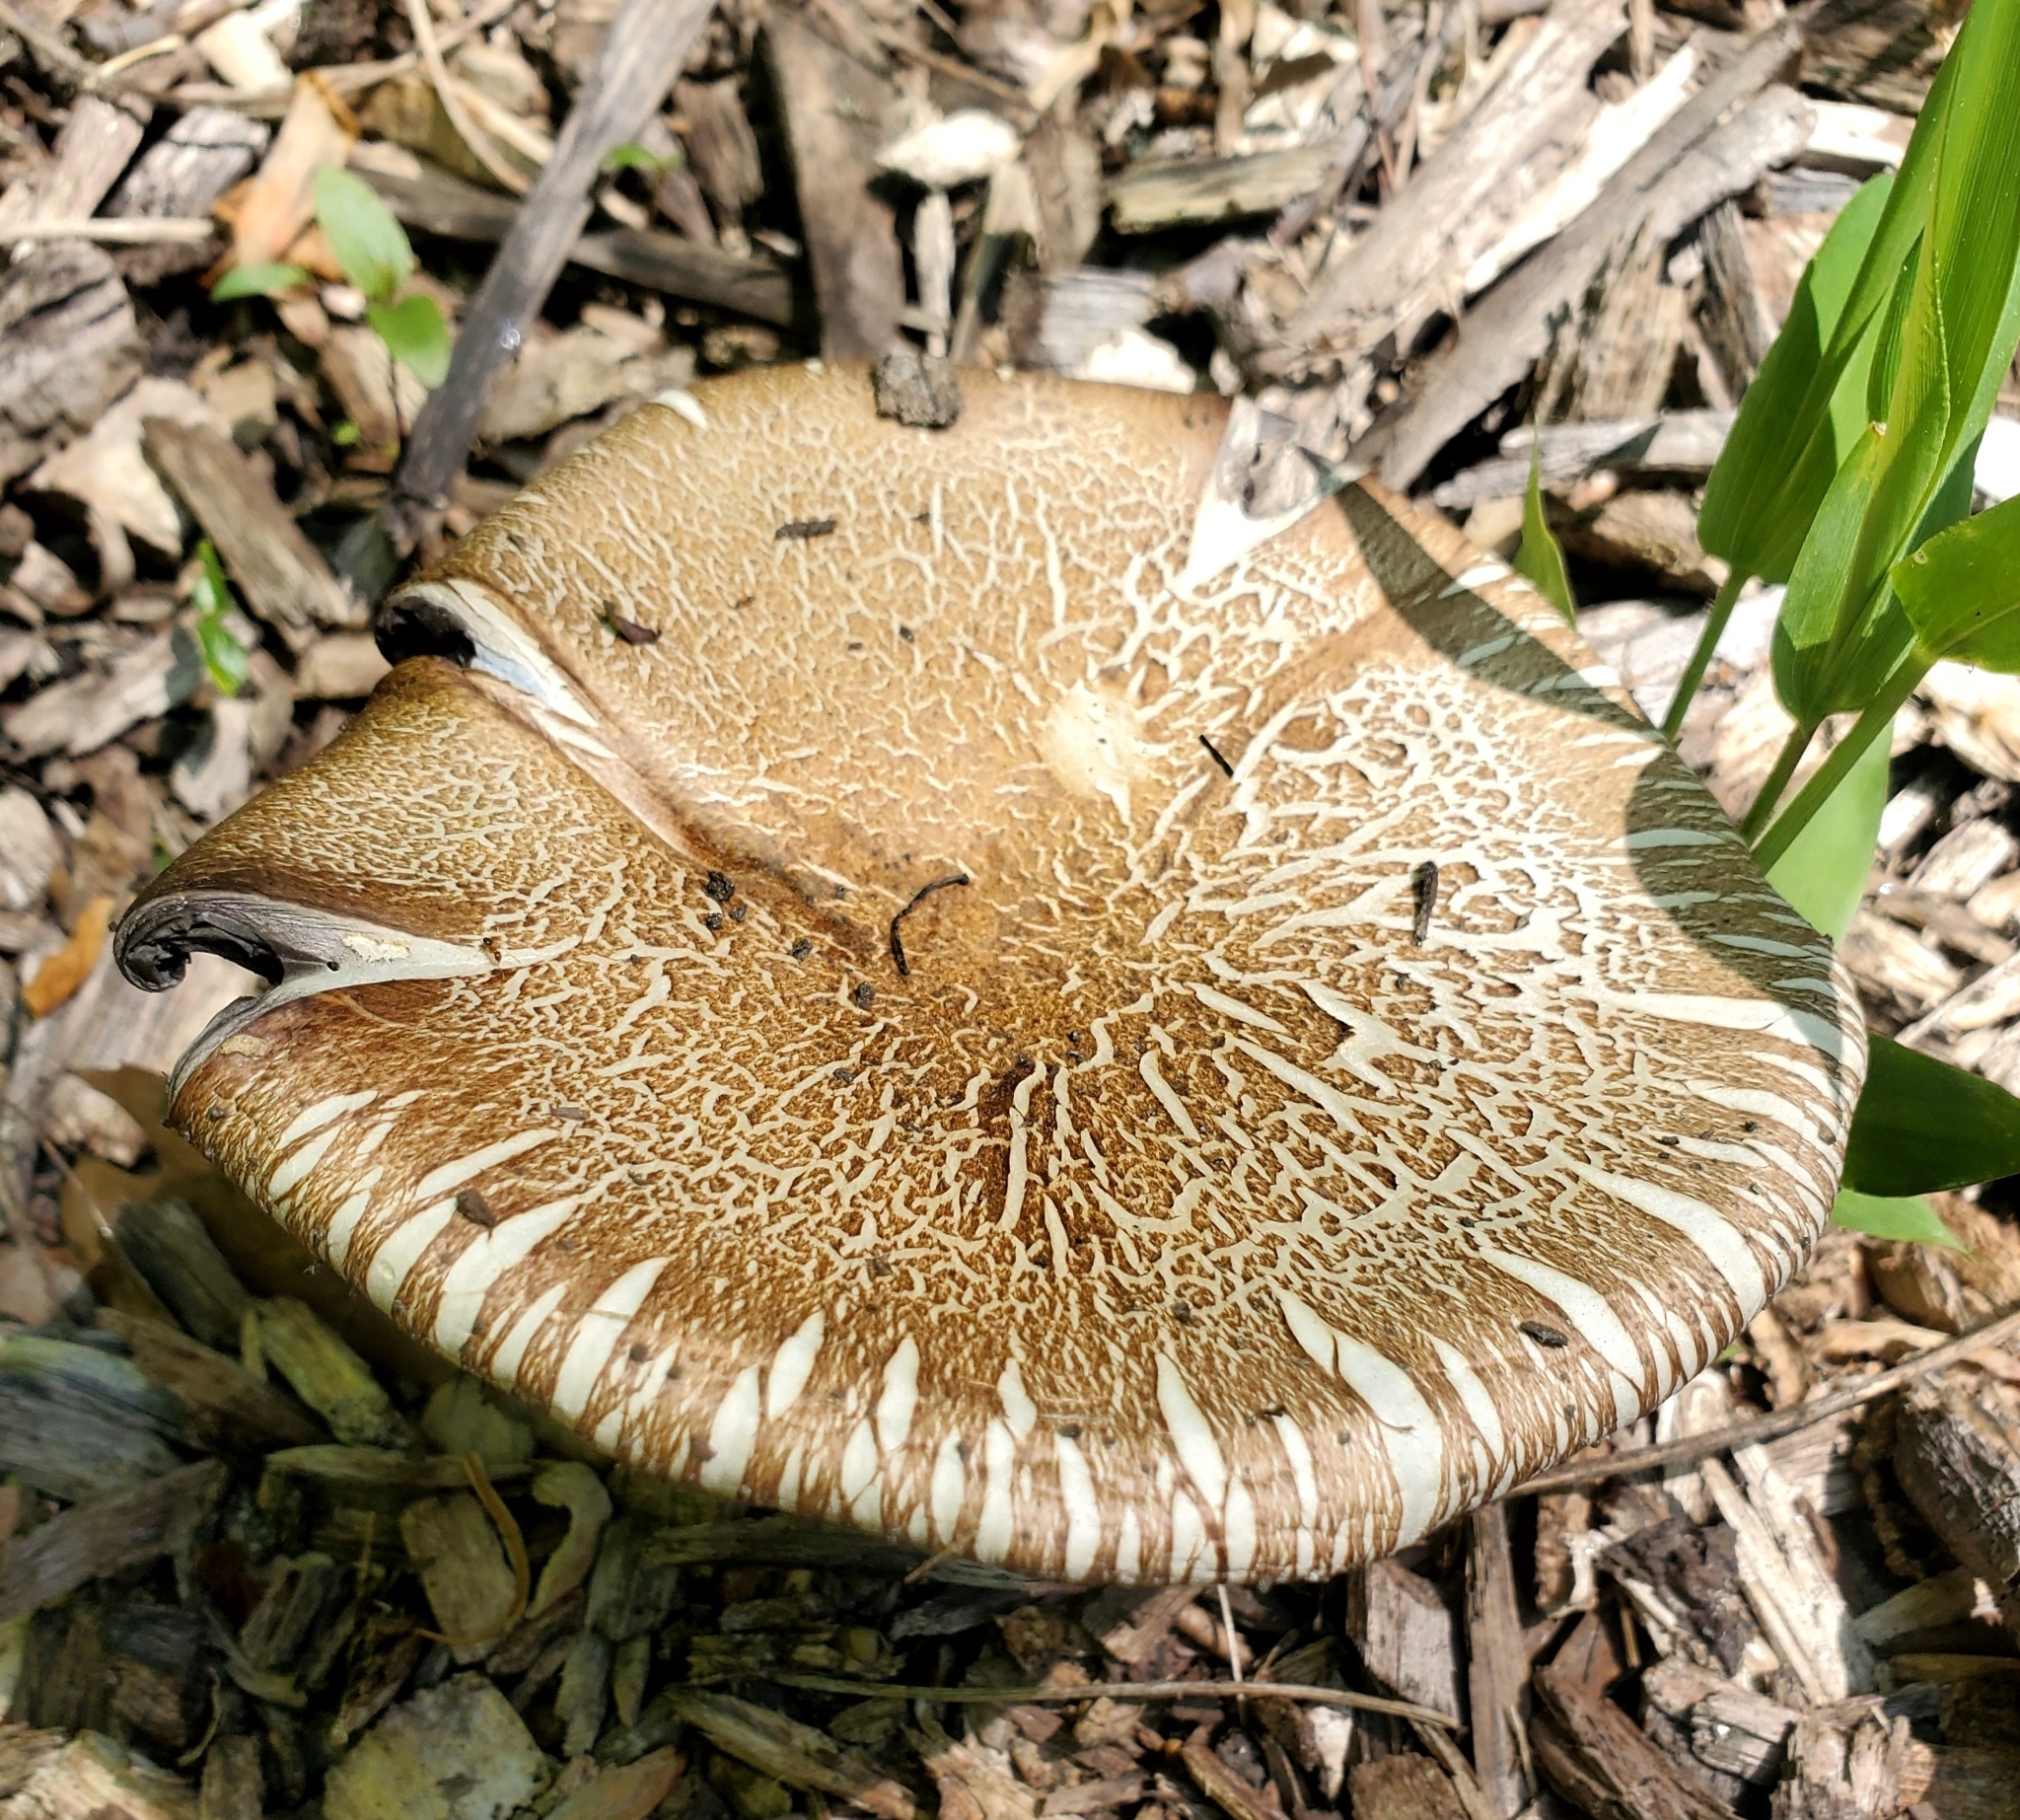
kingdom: Fungi
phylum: Basidiomycota
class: Agaricomycetes
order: Agaricales
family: Strophariaceae
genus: Stropharia
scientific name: Stropharia rugosoannulata
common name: Wine roundhead
